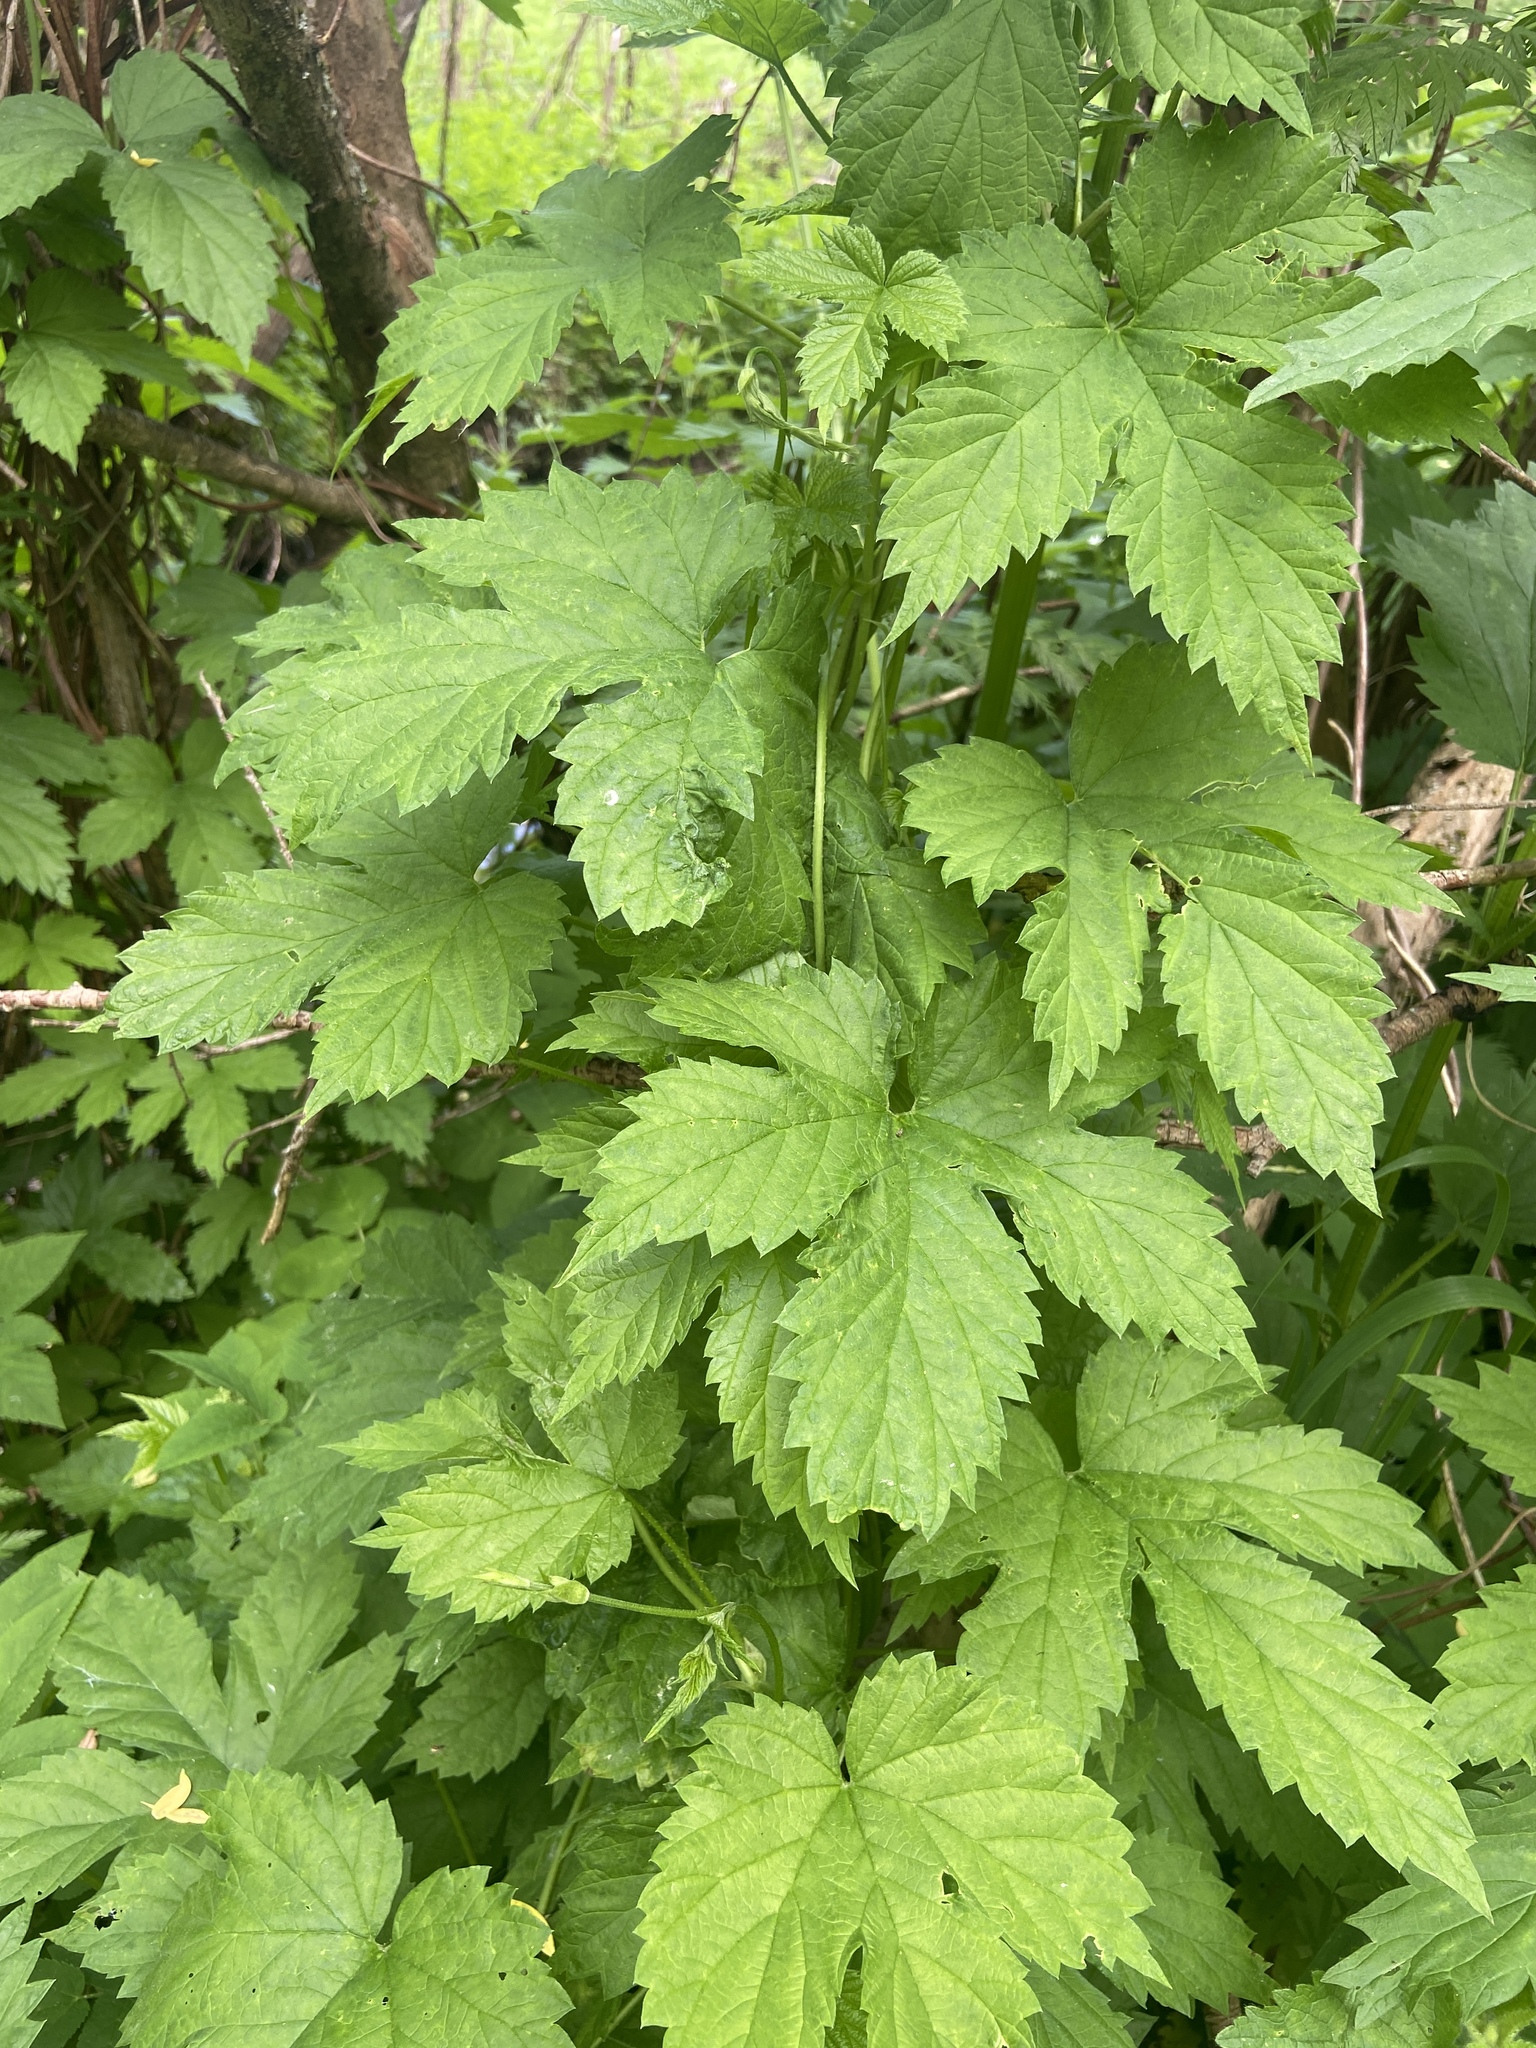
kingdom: Plantae
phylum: Tracheophyta
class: Magnoliopsida
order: Rosales
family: Cannabaceae
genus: Humulus
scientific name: Humulus lupulus
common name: Hop
